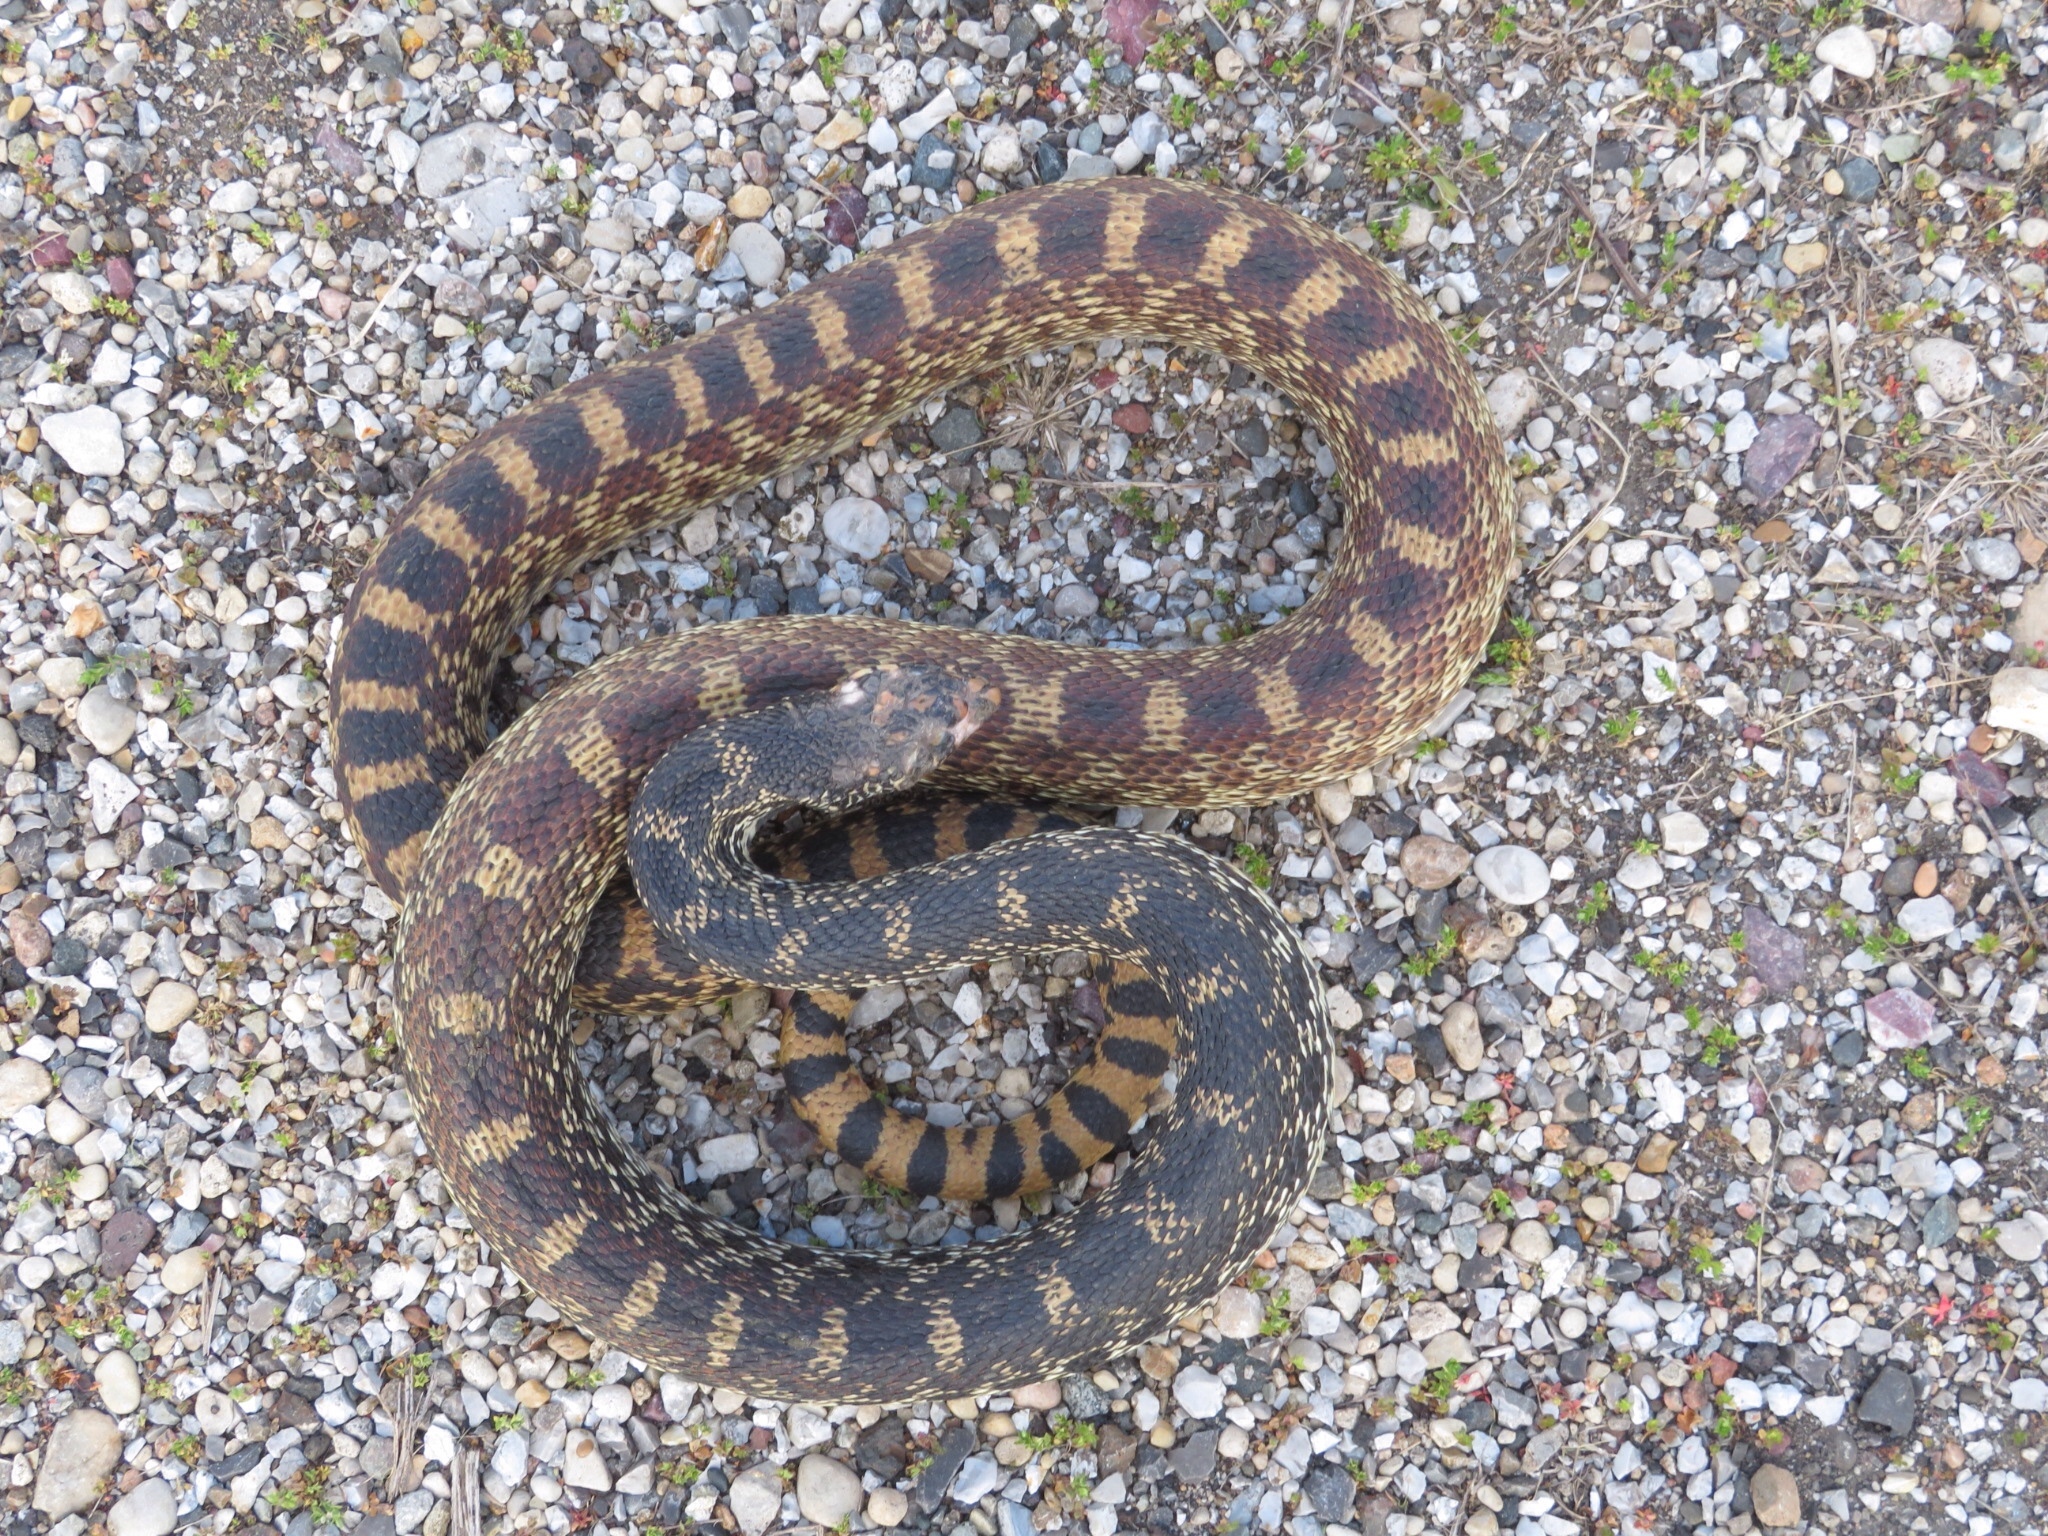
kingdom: Animalia
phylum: Chordata
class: Squamata
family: Colubridae
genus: Pituophis
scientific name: Pituophis catenifer
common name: Gopher snake
